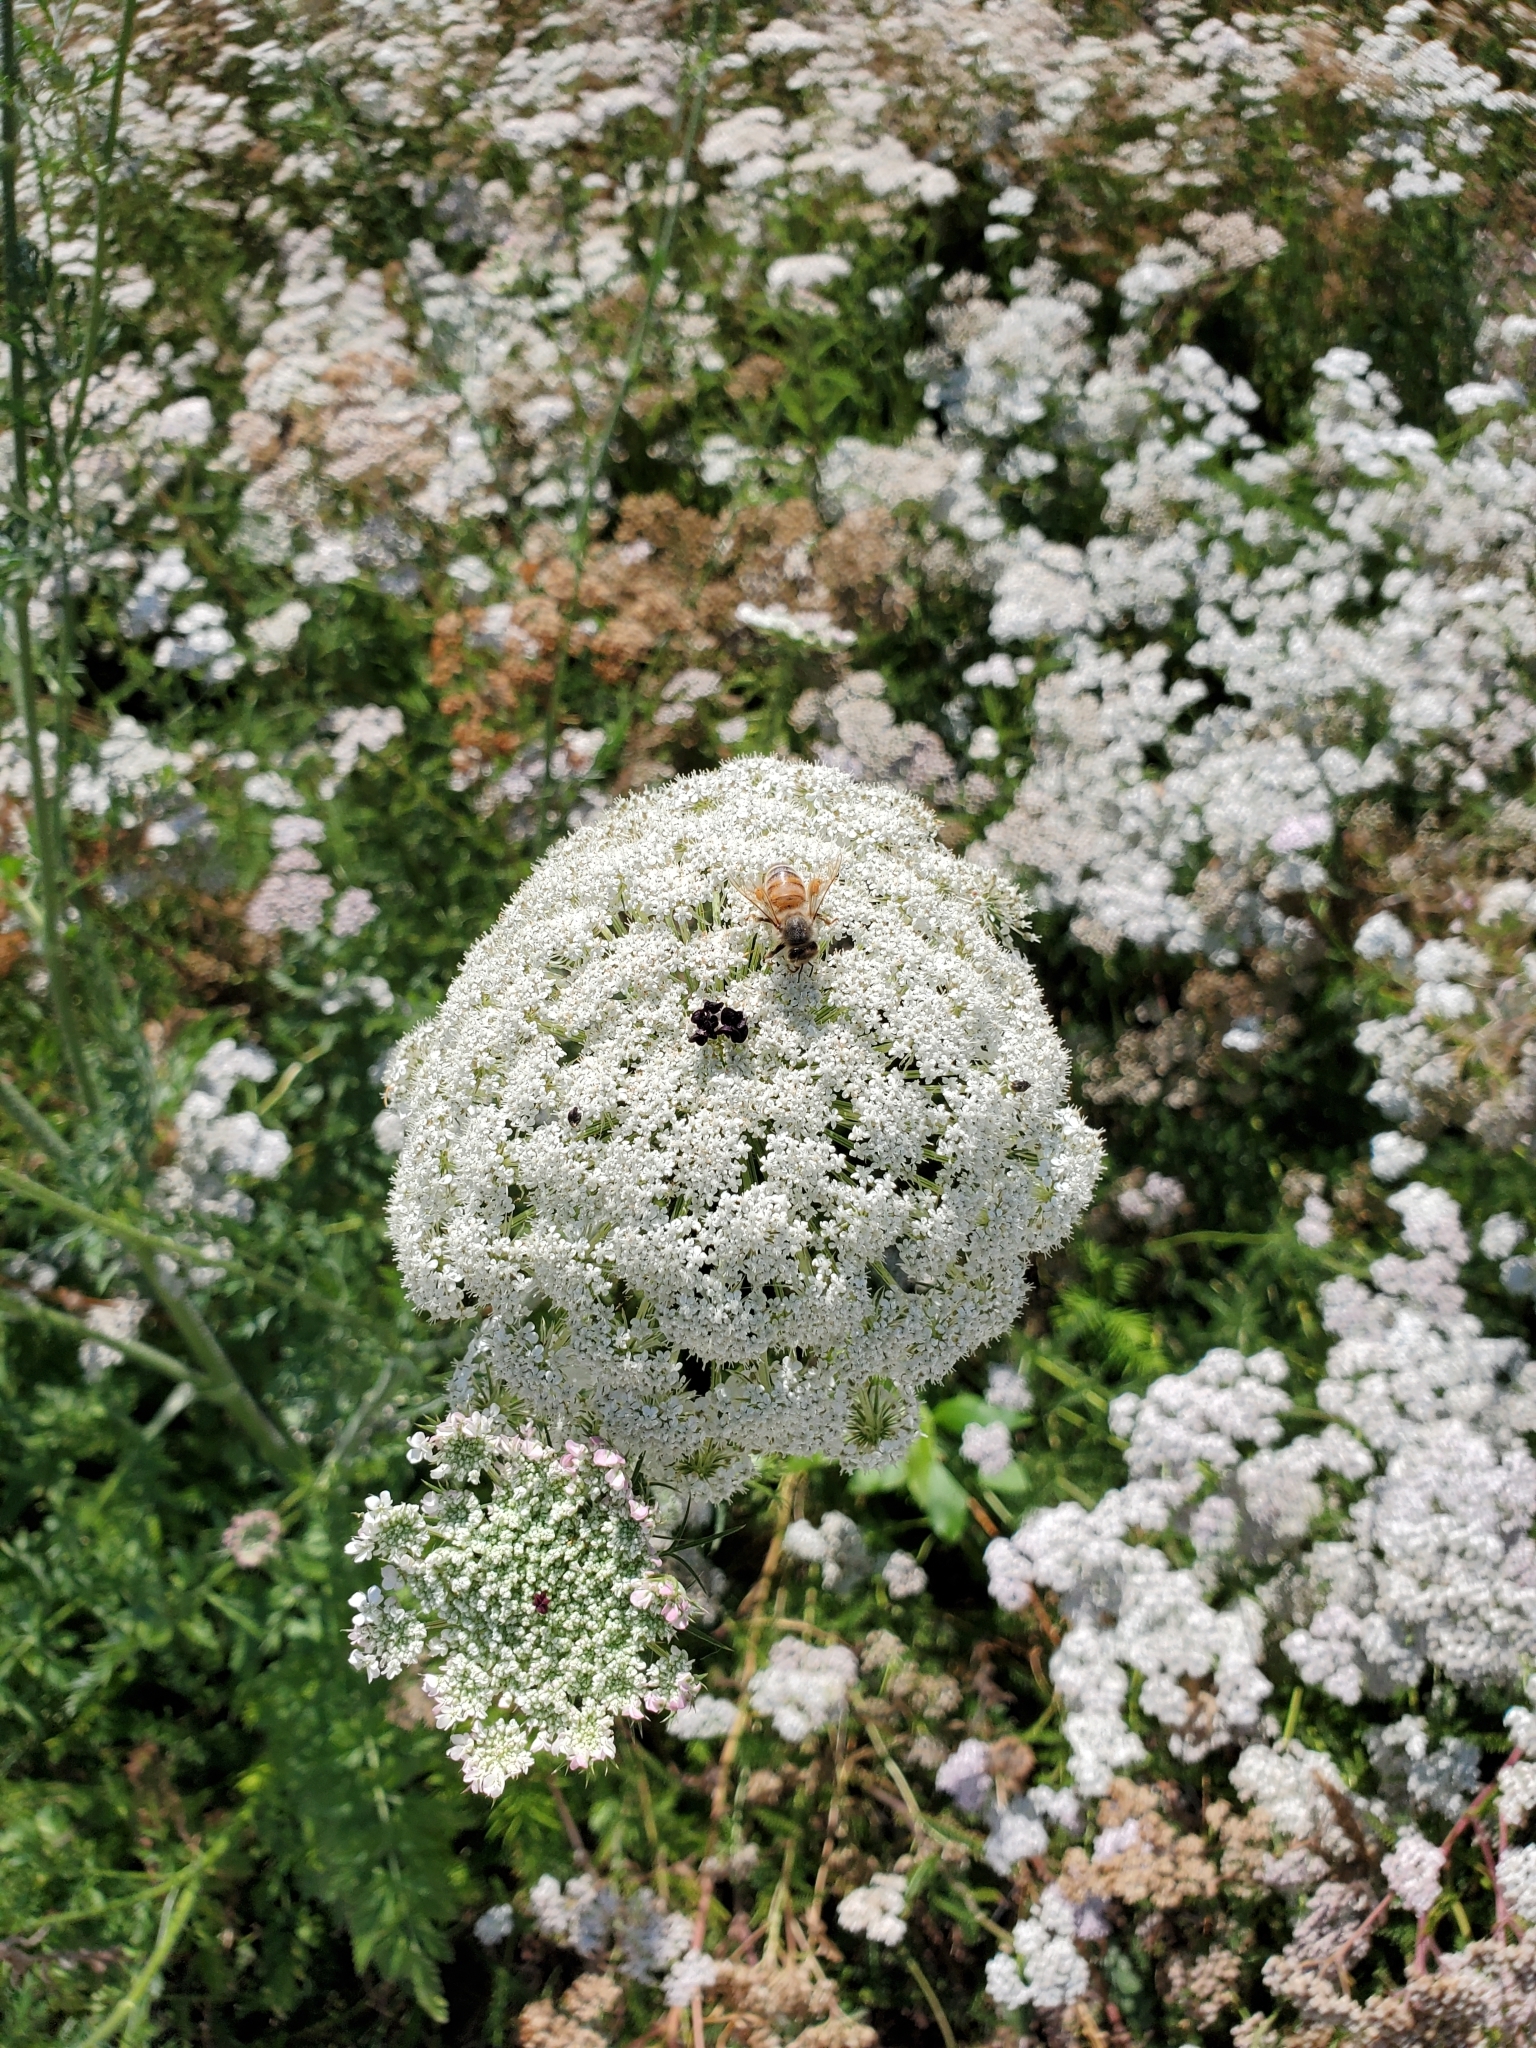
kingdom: Plantae
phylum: Tracheophyta
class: Magnoliopsida
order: Apiales
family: Apiaceae
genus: Daucus
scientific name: Daucus carota
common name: Wild carrot
